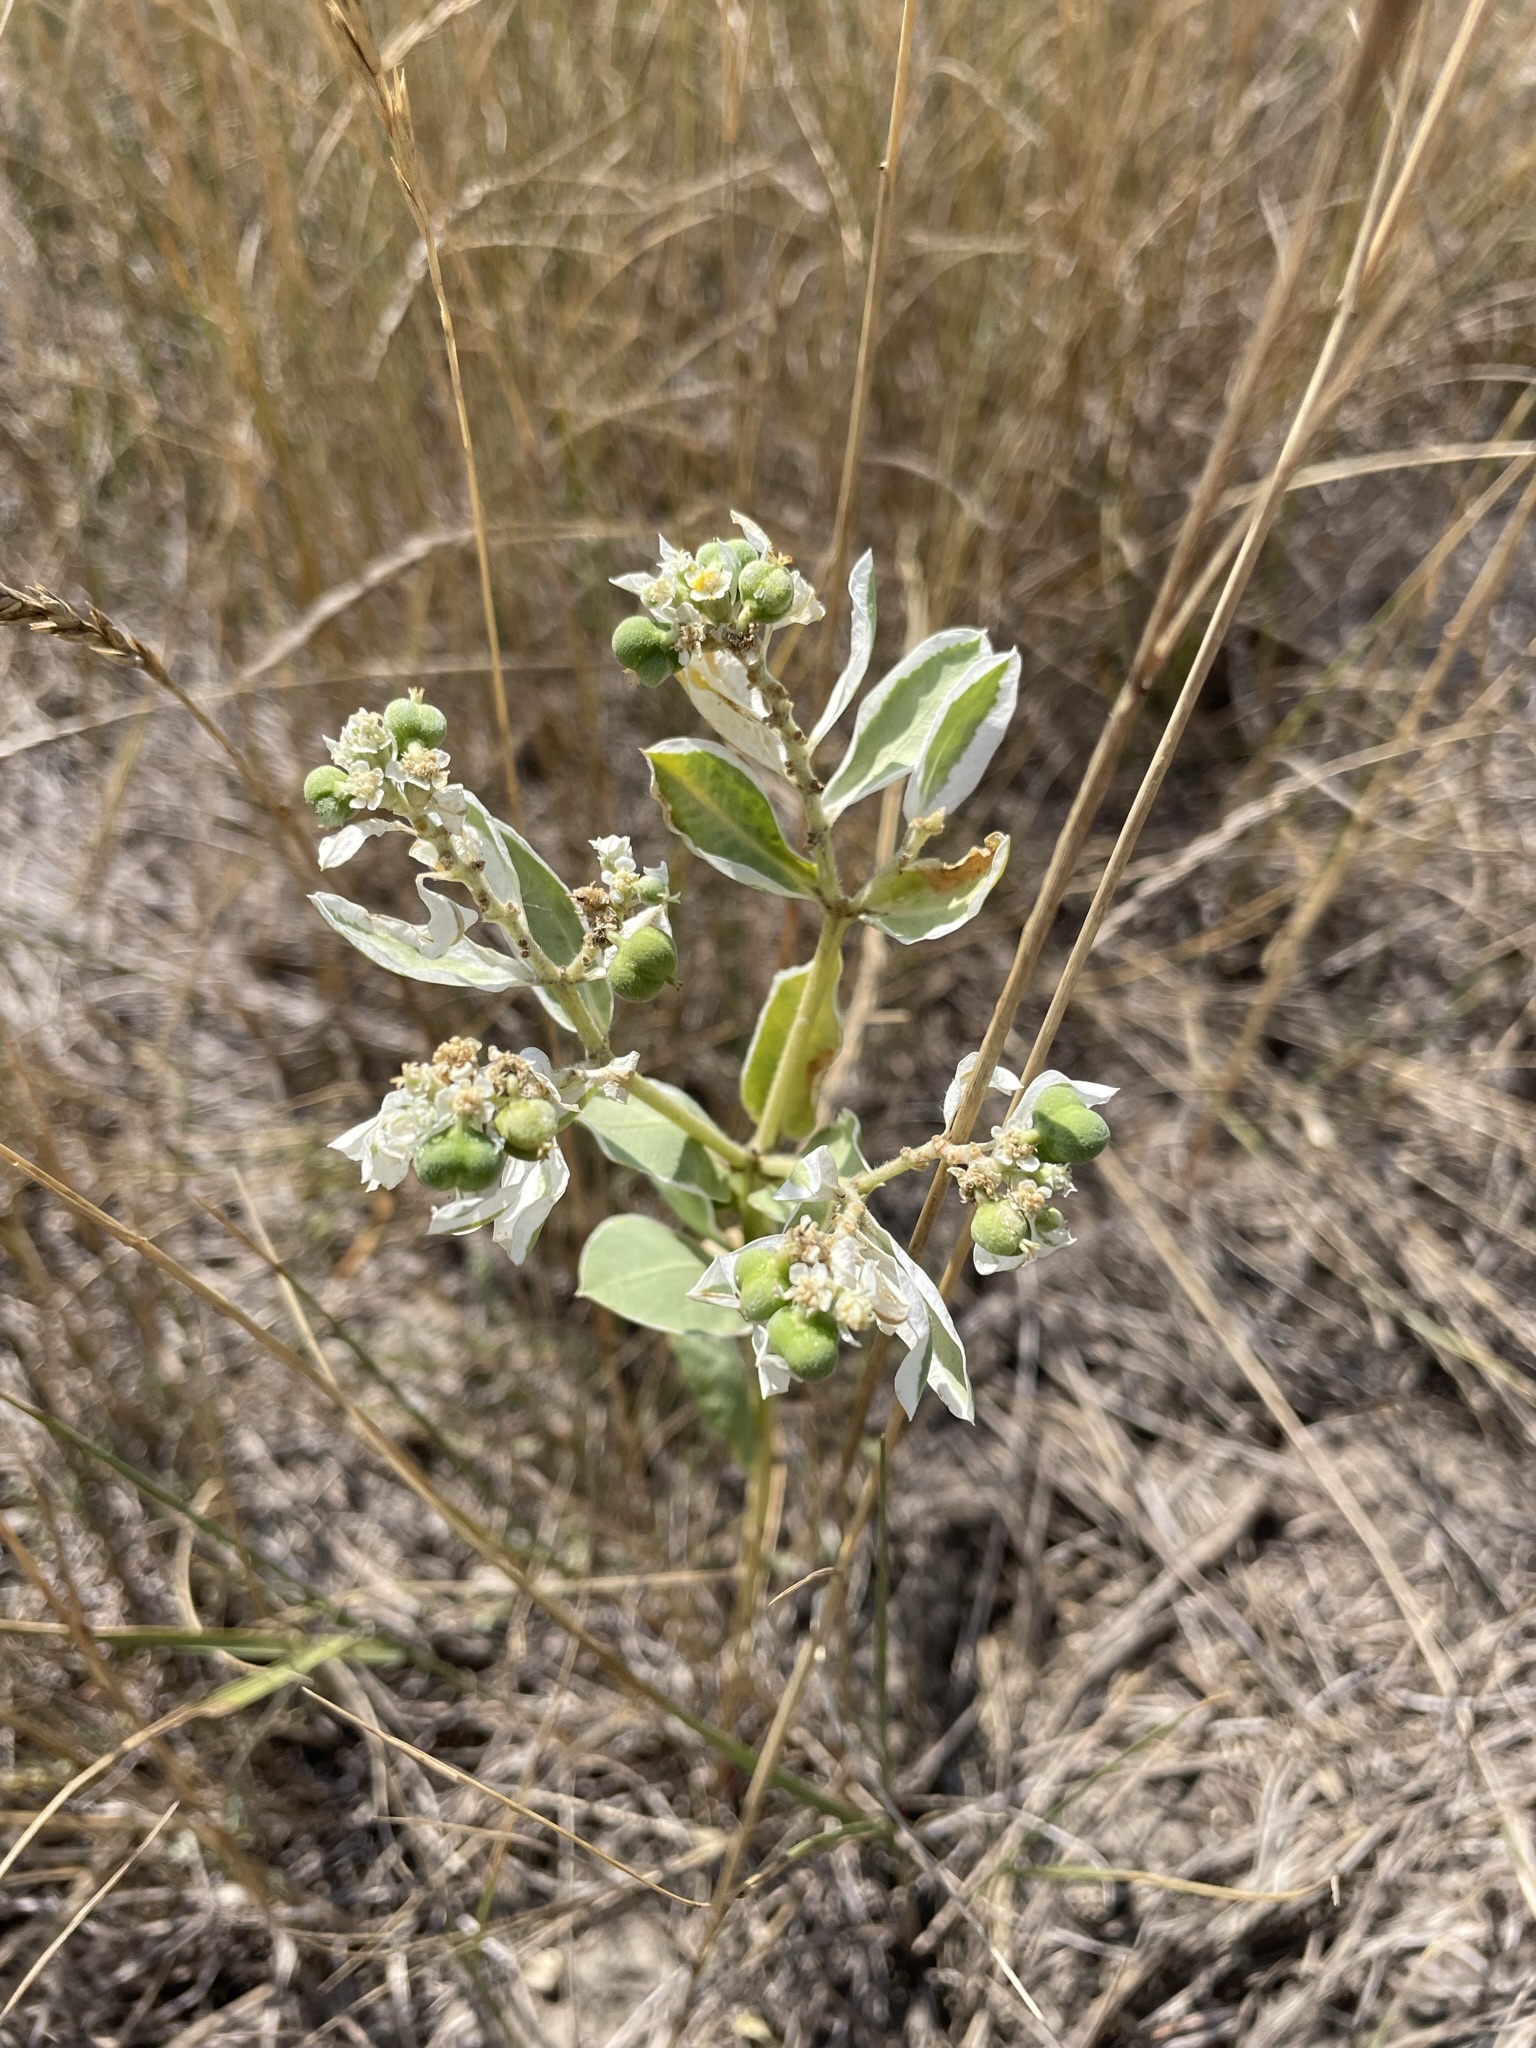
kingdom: Plantae
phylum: Tracheophyta
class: Magnoliopsida
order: Malpighiales
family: Euphorbiaceae
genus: Euphorbia
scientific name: Euphorbia marginata
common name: Ghostweed
